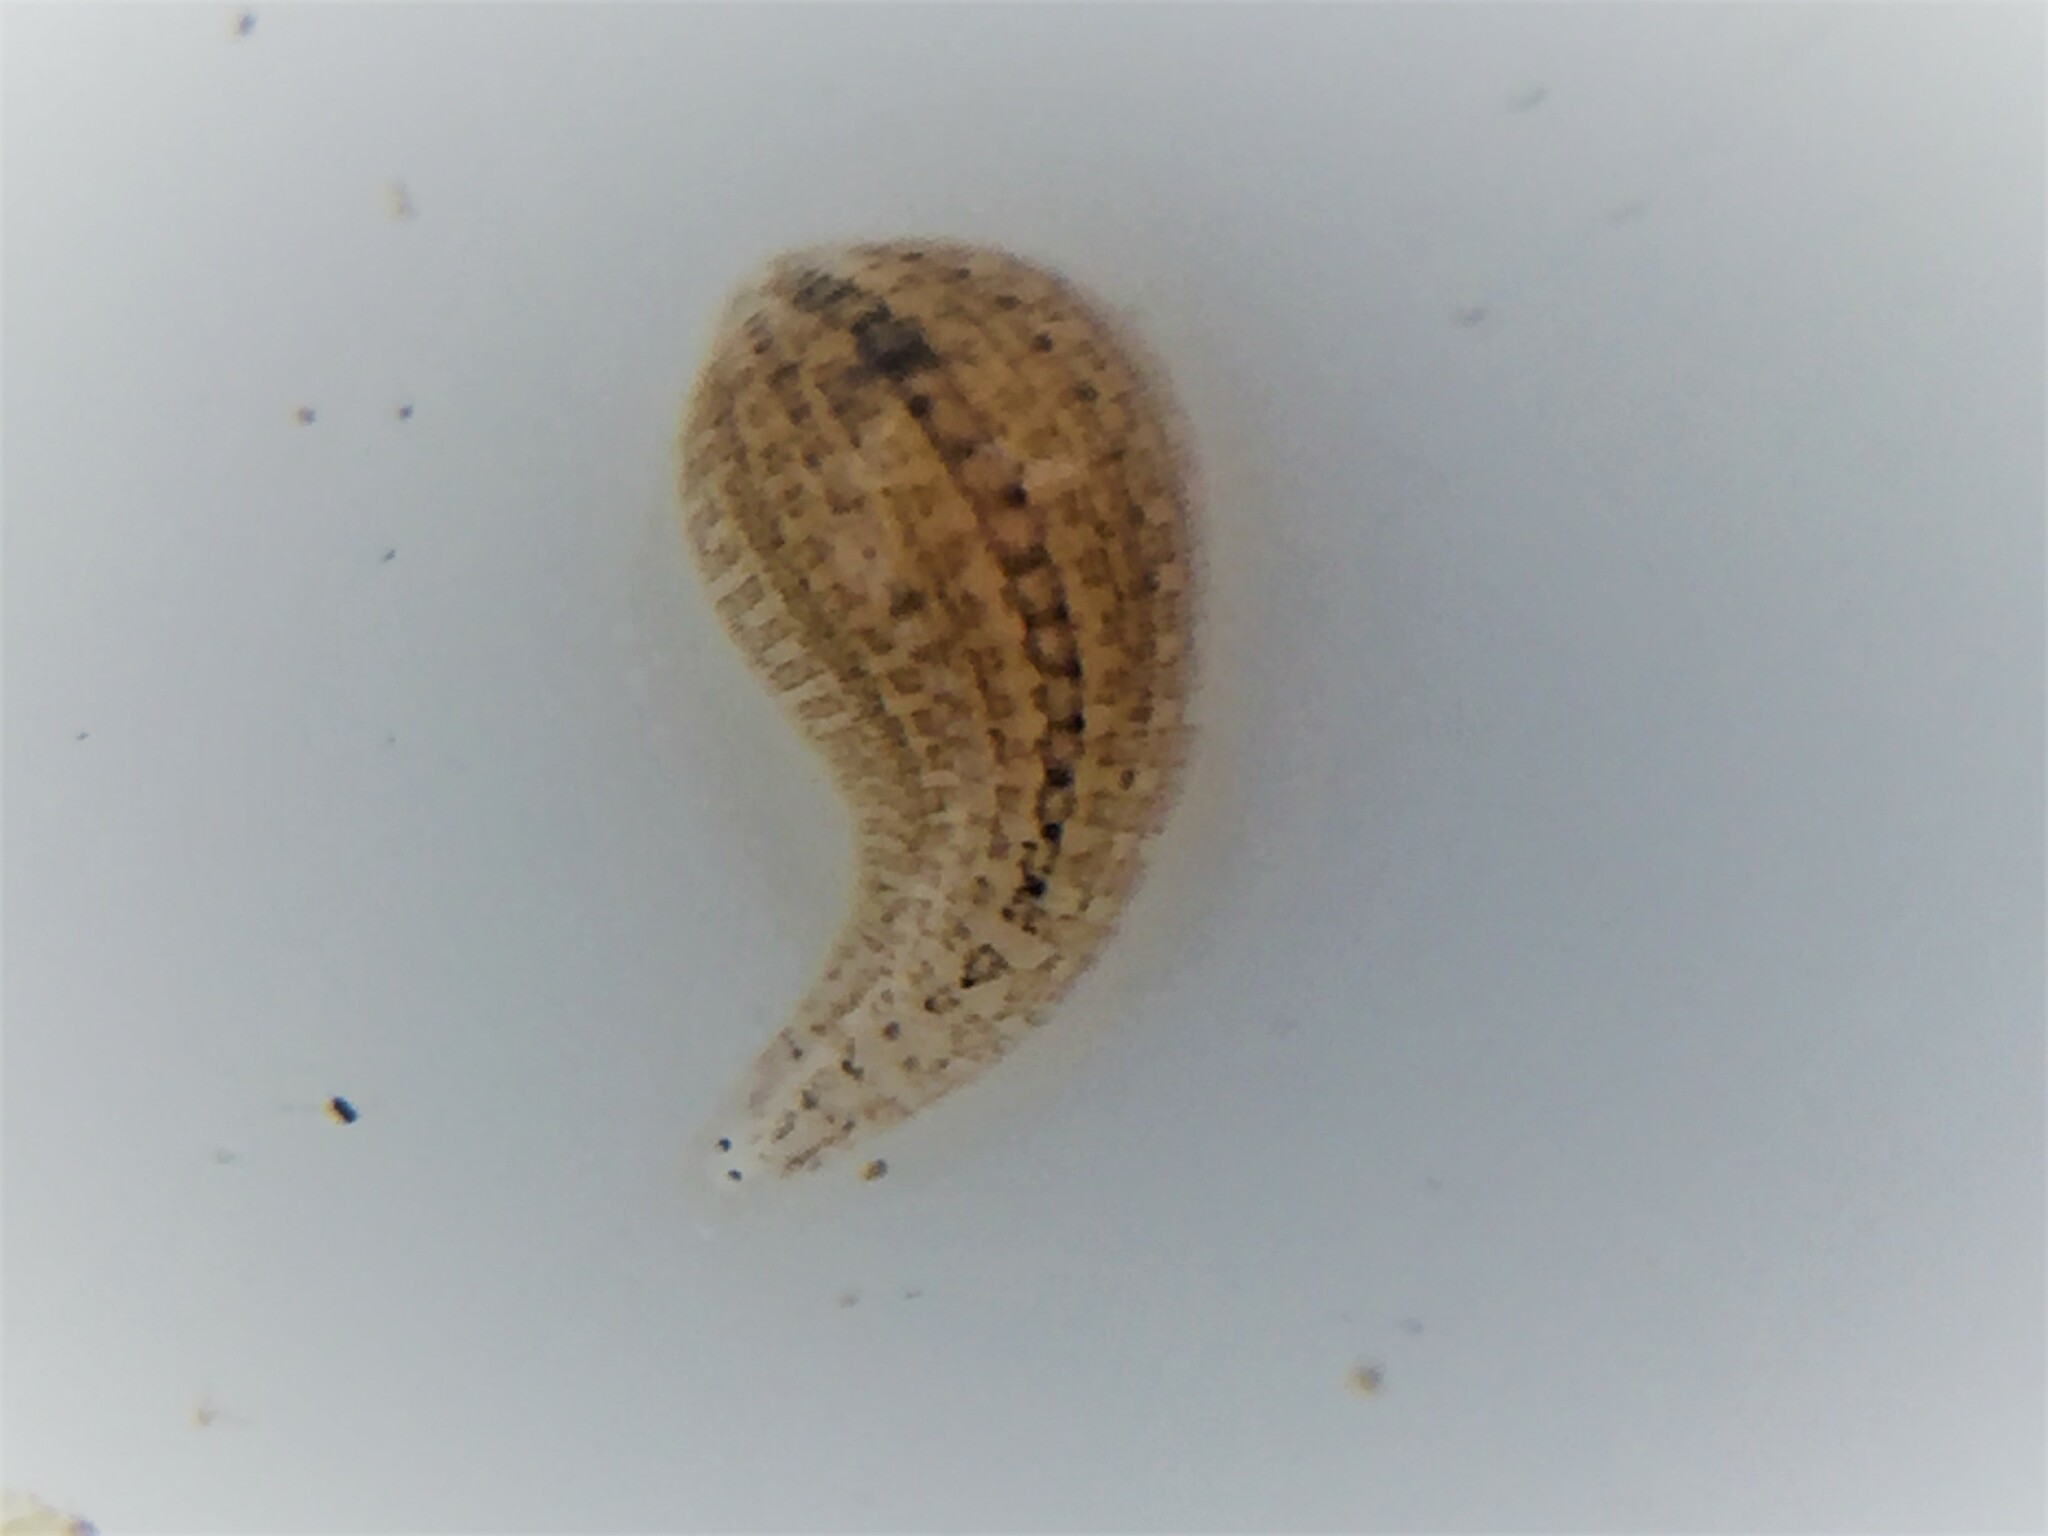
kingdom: Animalia
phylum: Annelida
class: Clitellata
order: Rhynchobdellida
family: Glossiphoniidae
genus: Helobdella
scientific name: Helobdella europaea
